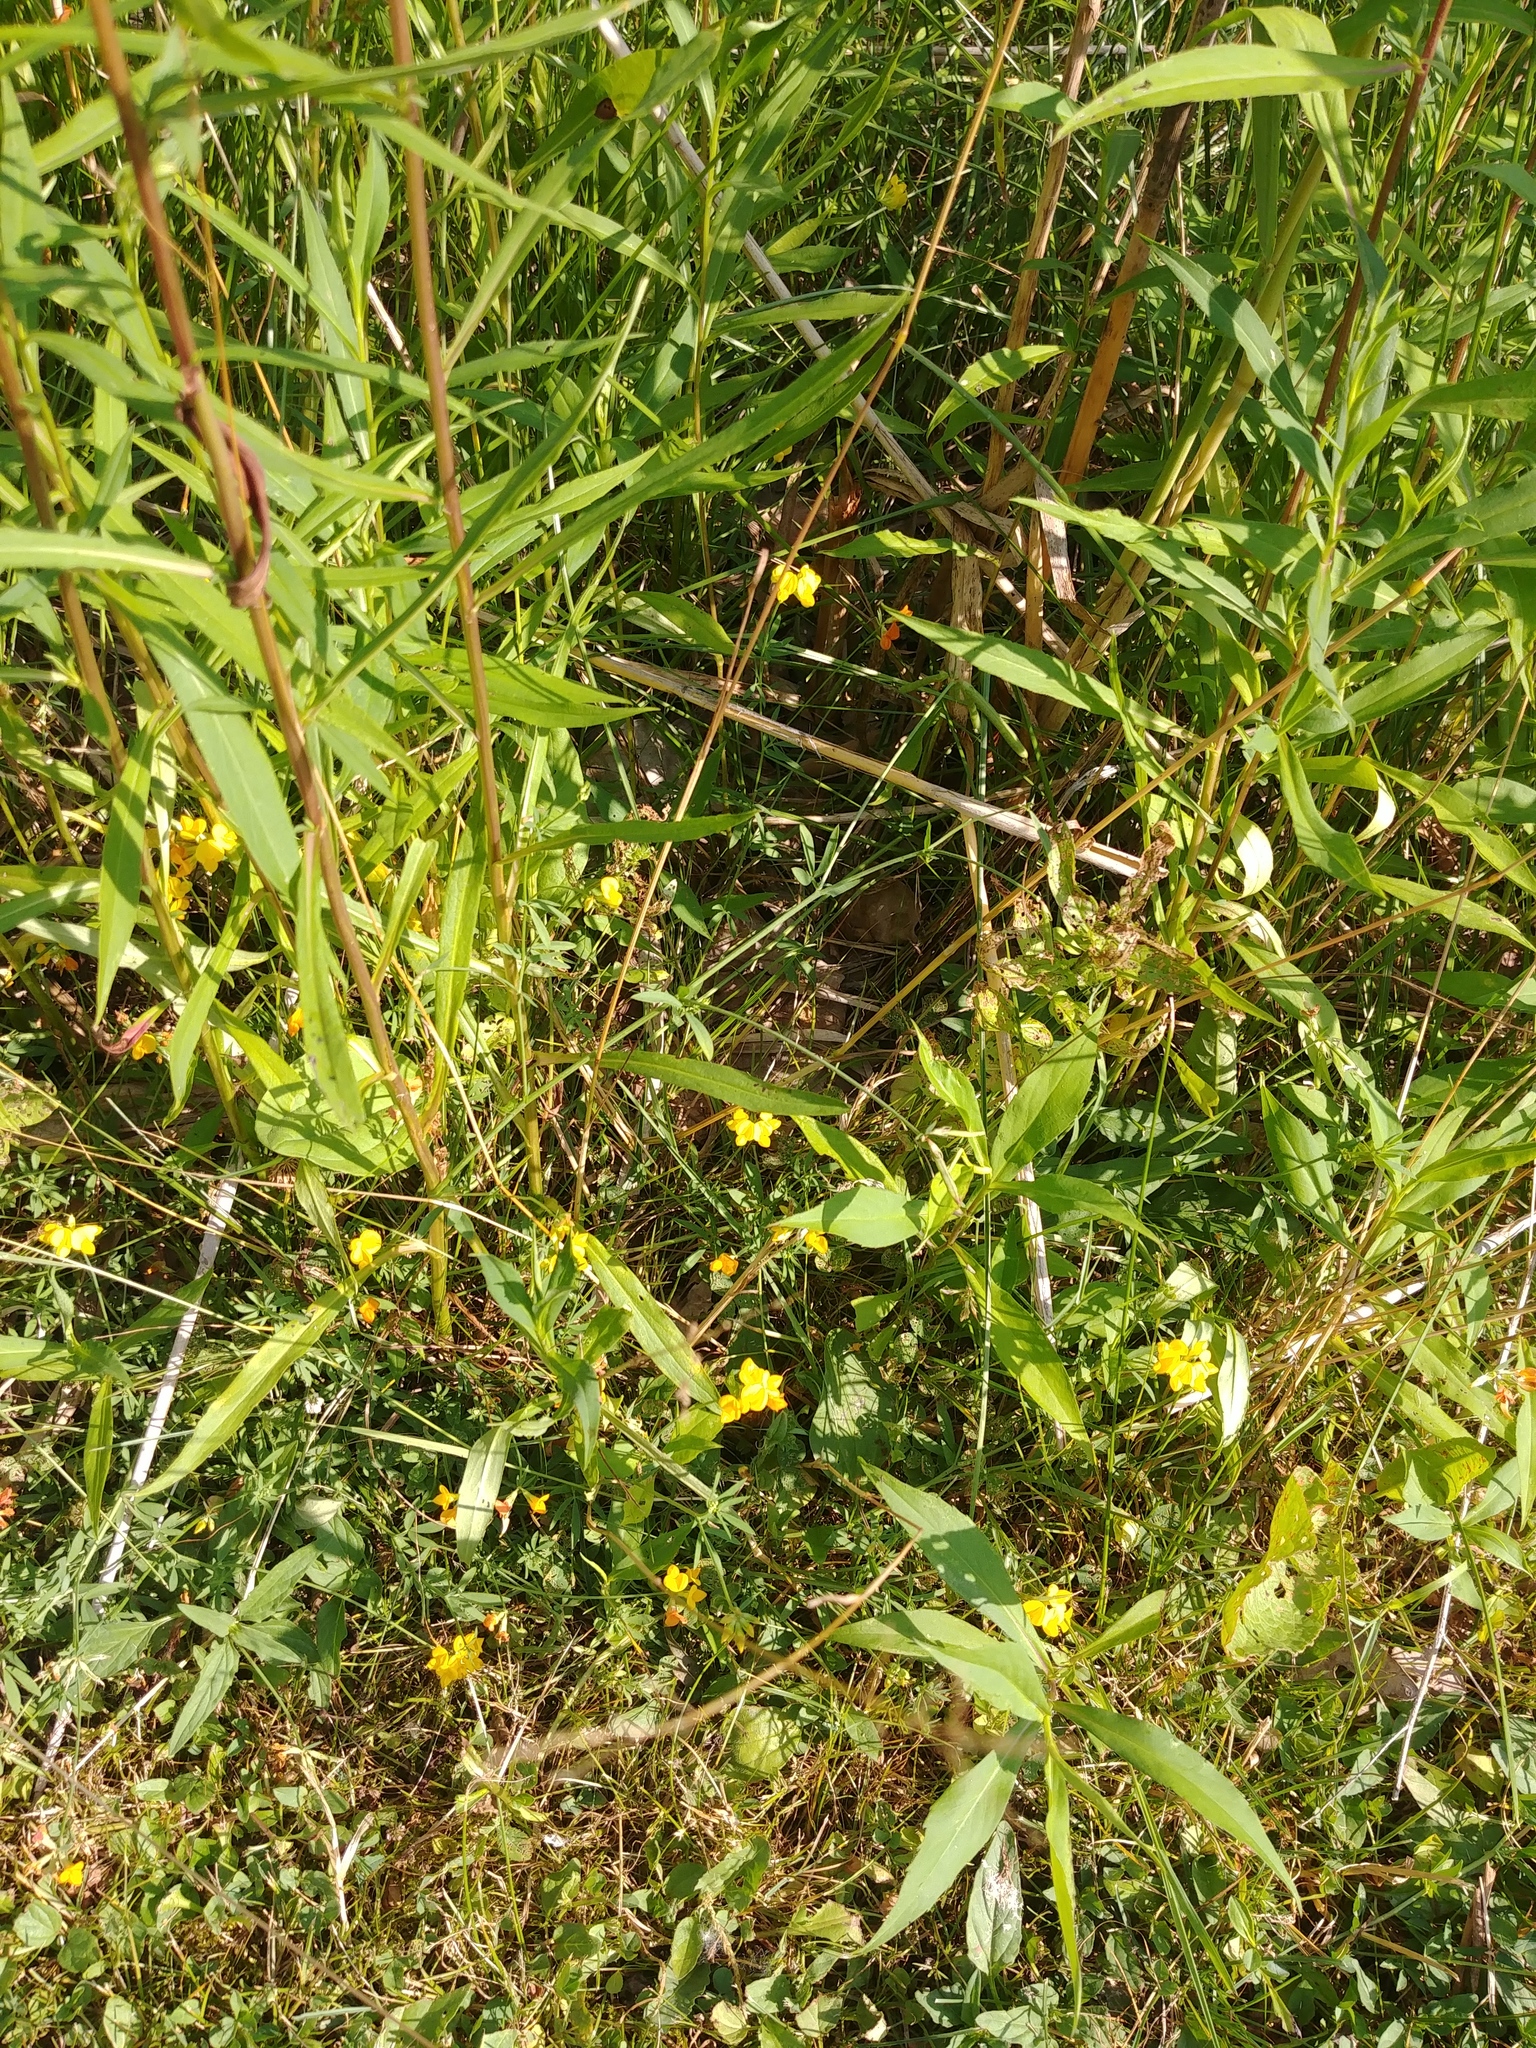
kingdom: Plantae
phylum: Tracheophyta
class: Magnoliopsida
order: Fabales
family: Fabaceae
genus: Lotus
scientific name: Lotus corniculatus
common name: Common bird's-foot-trefoil
